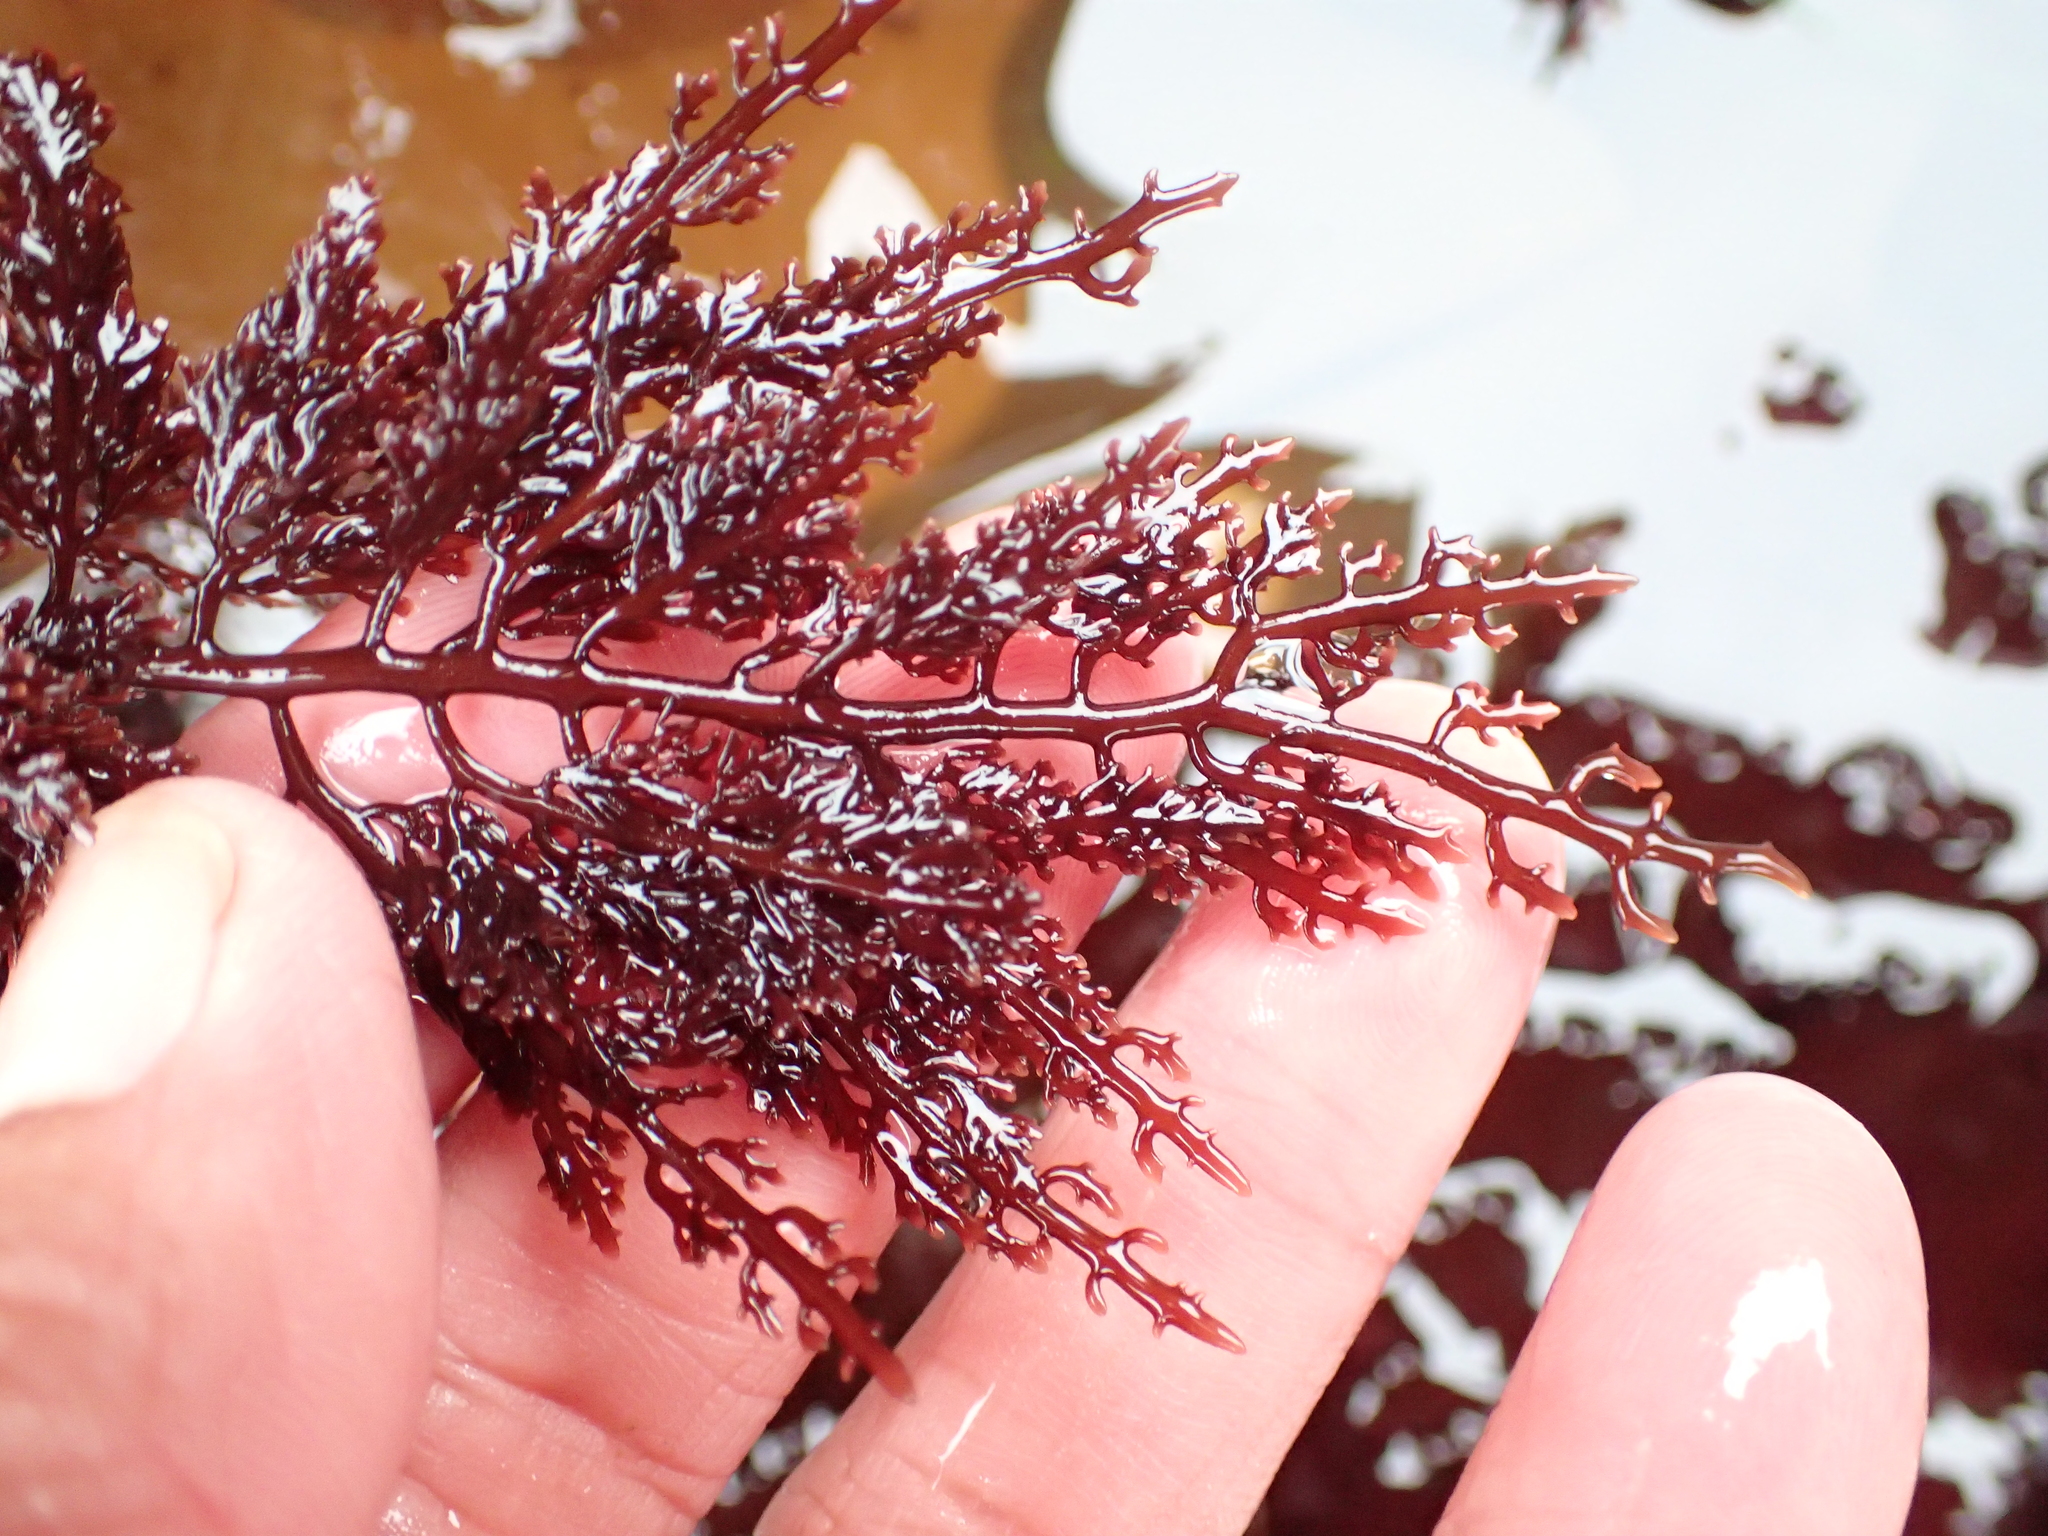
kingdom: Plantae
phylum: Rhodophyta
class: Florideophyceae
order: Gelidiales
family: Gelidiaceae
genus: Gelidium
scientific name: Gelidium robustum
